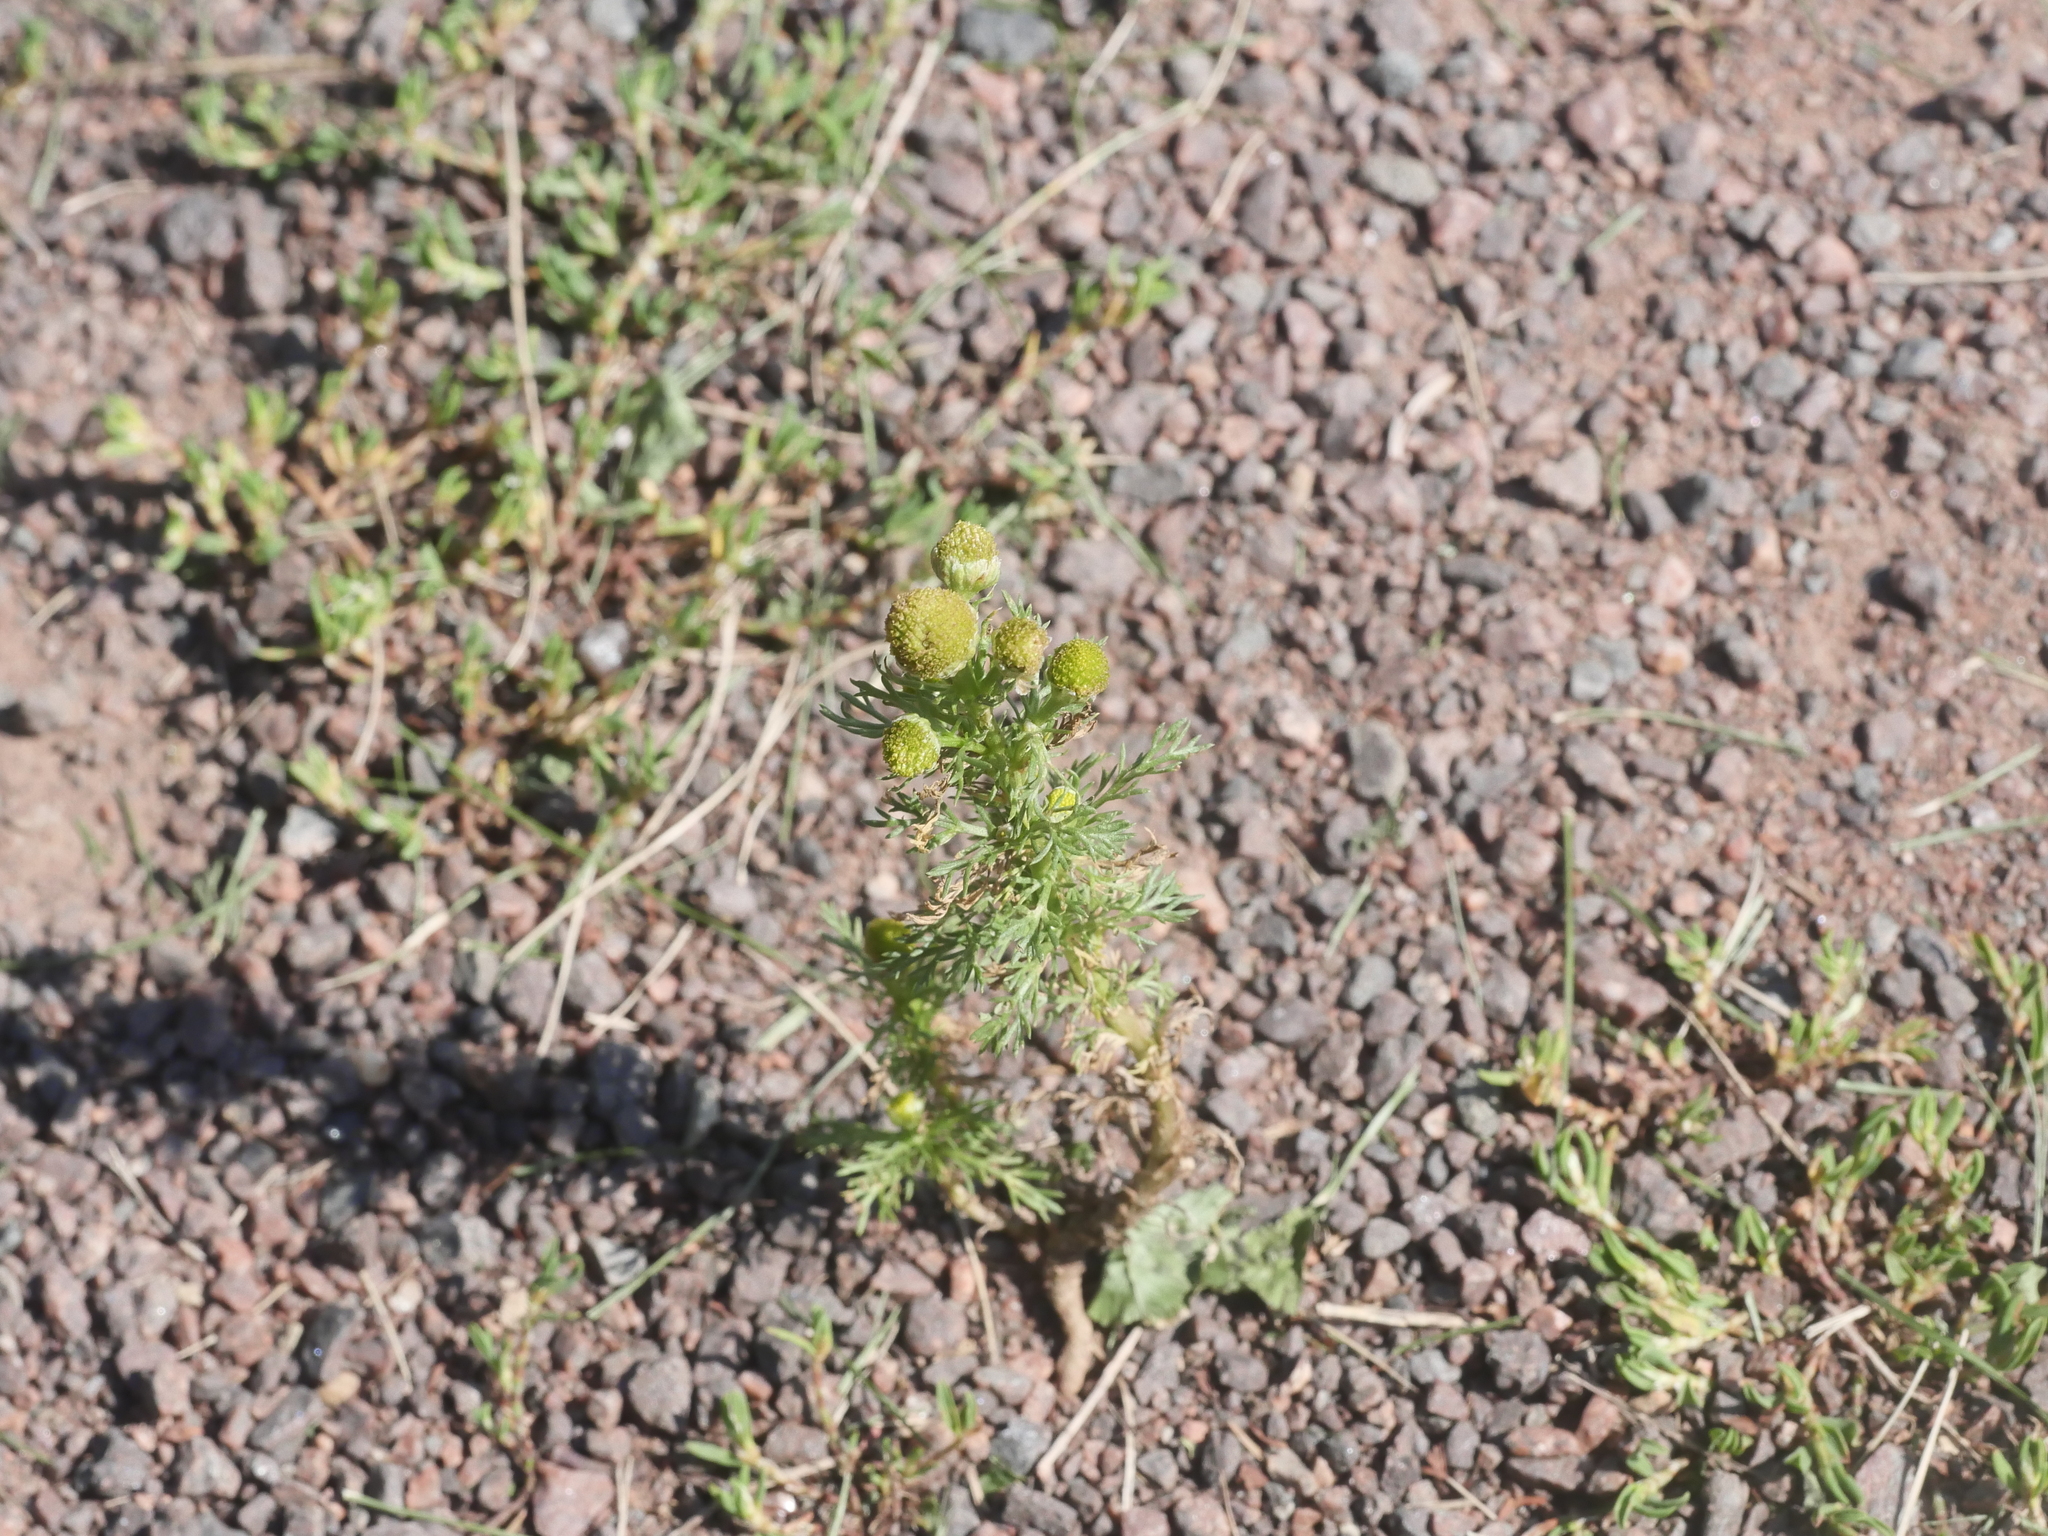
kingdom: Plantae
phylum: Tracheophyta
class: Magnoliopsida
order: Asterales
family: Asteraceae
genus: Matricaria
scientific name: Matricaria discoidea
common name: Disc mayweed
